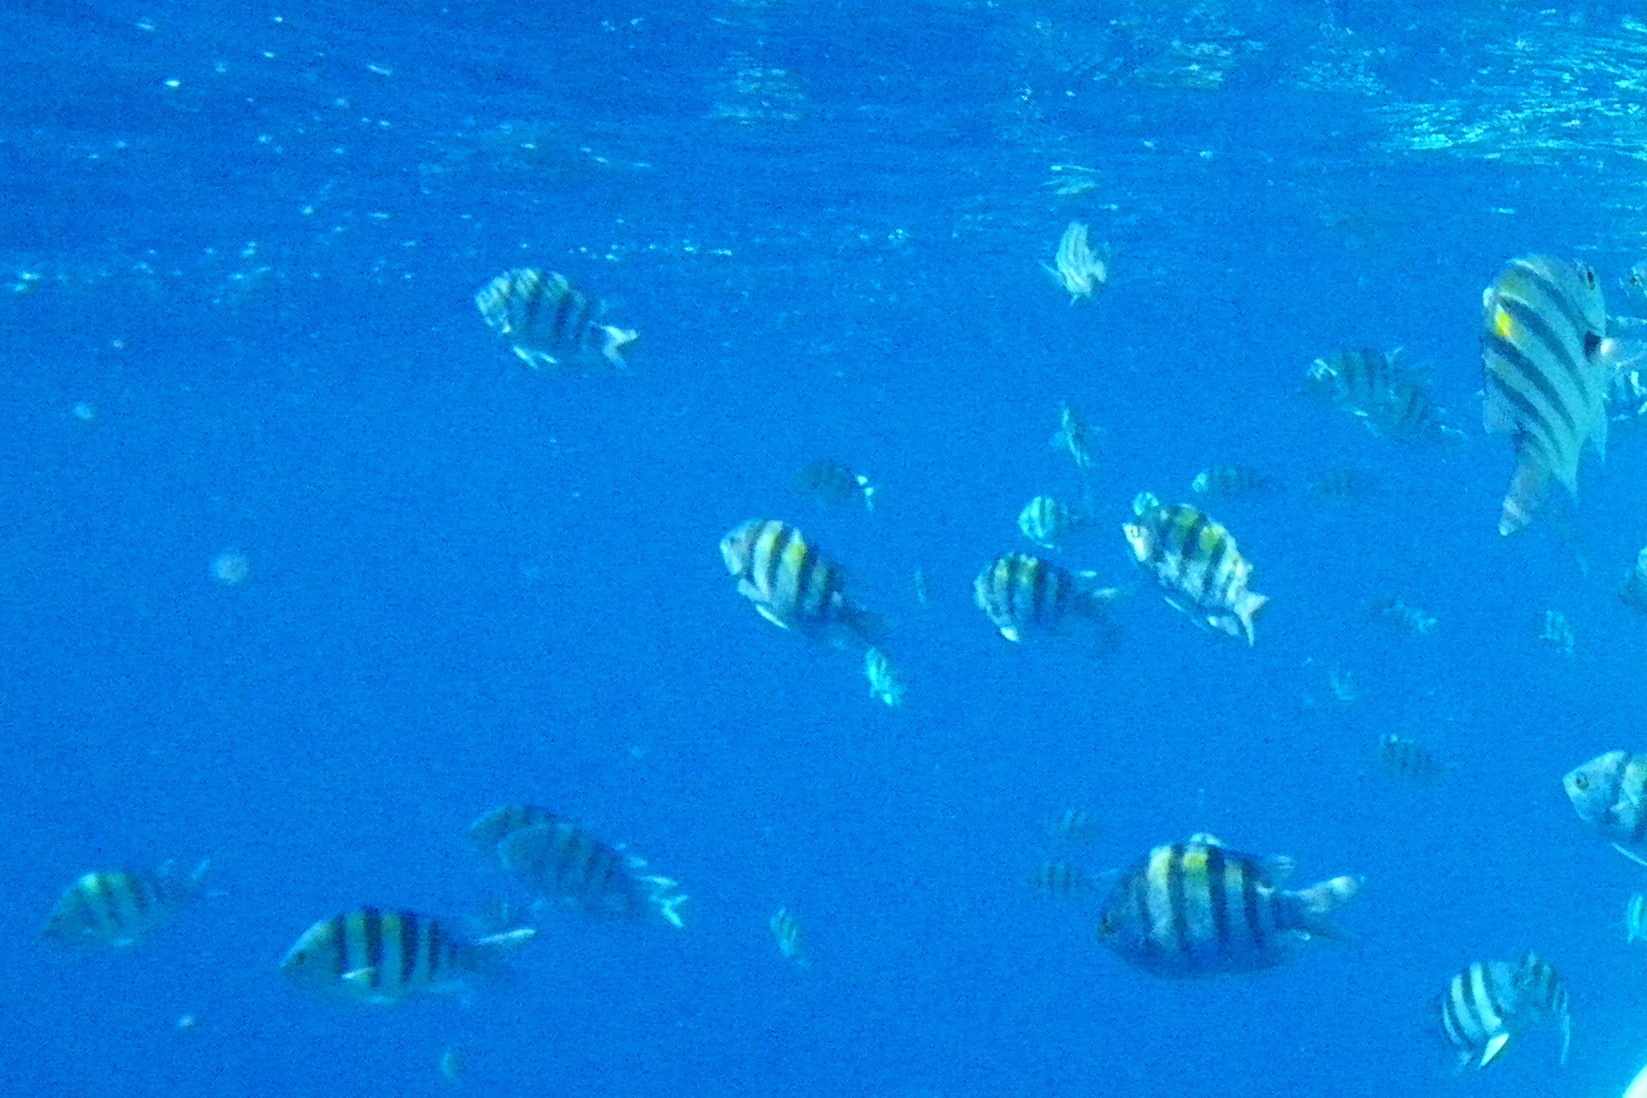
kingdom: Animalia
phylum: Chordata
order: Perciformes
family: Pomacentridae
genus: Abudefduf
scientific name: Abudefduf vaigiensis
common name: Indo-pacific sergeant
